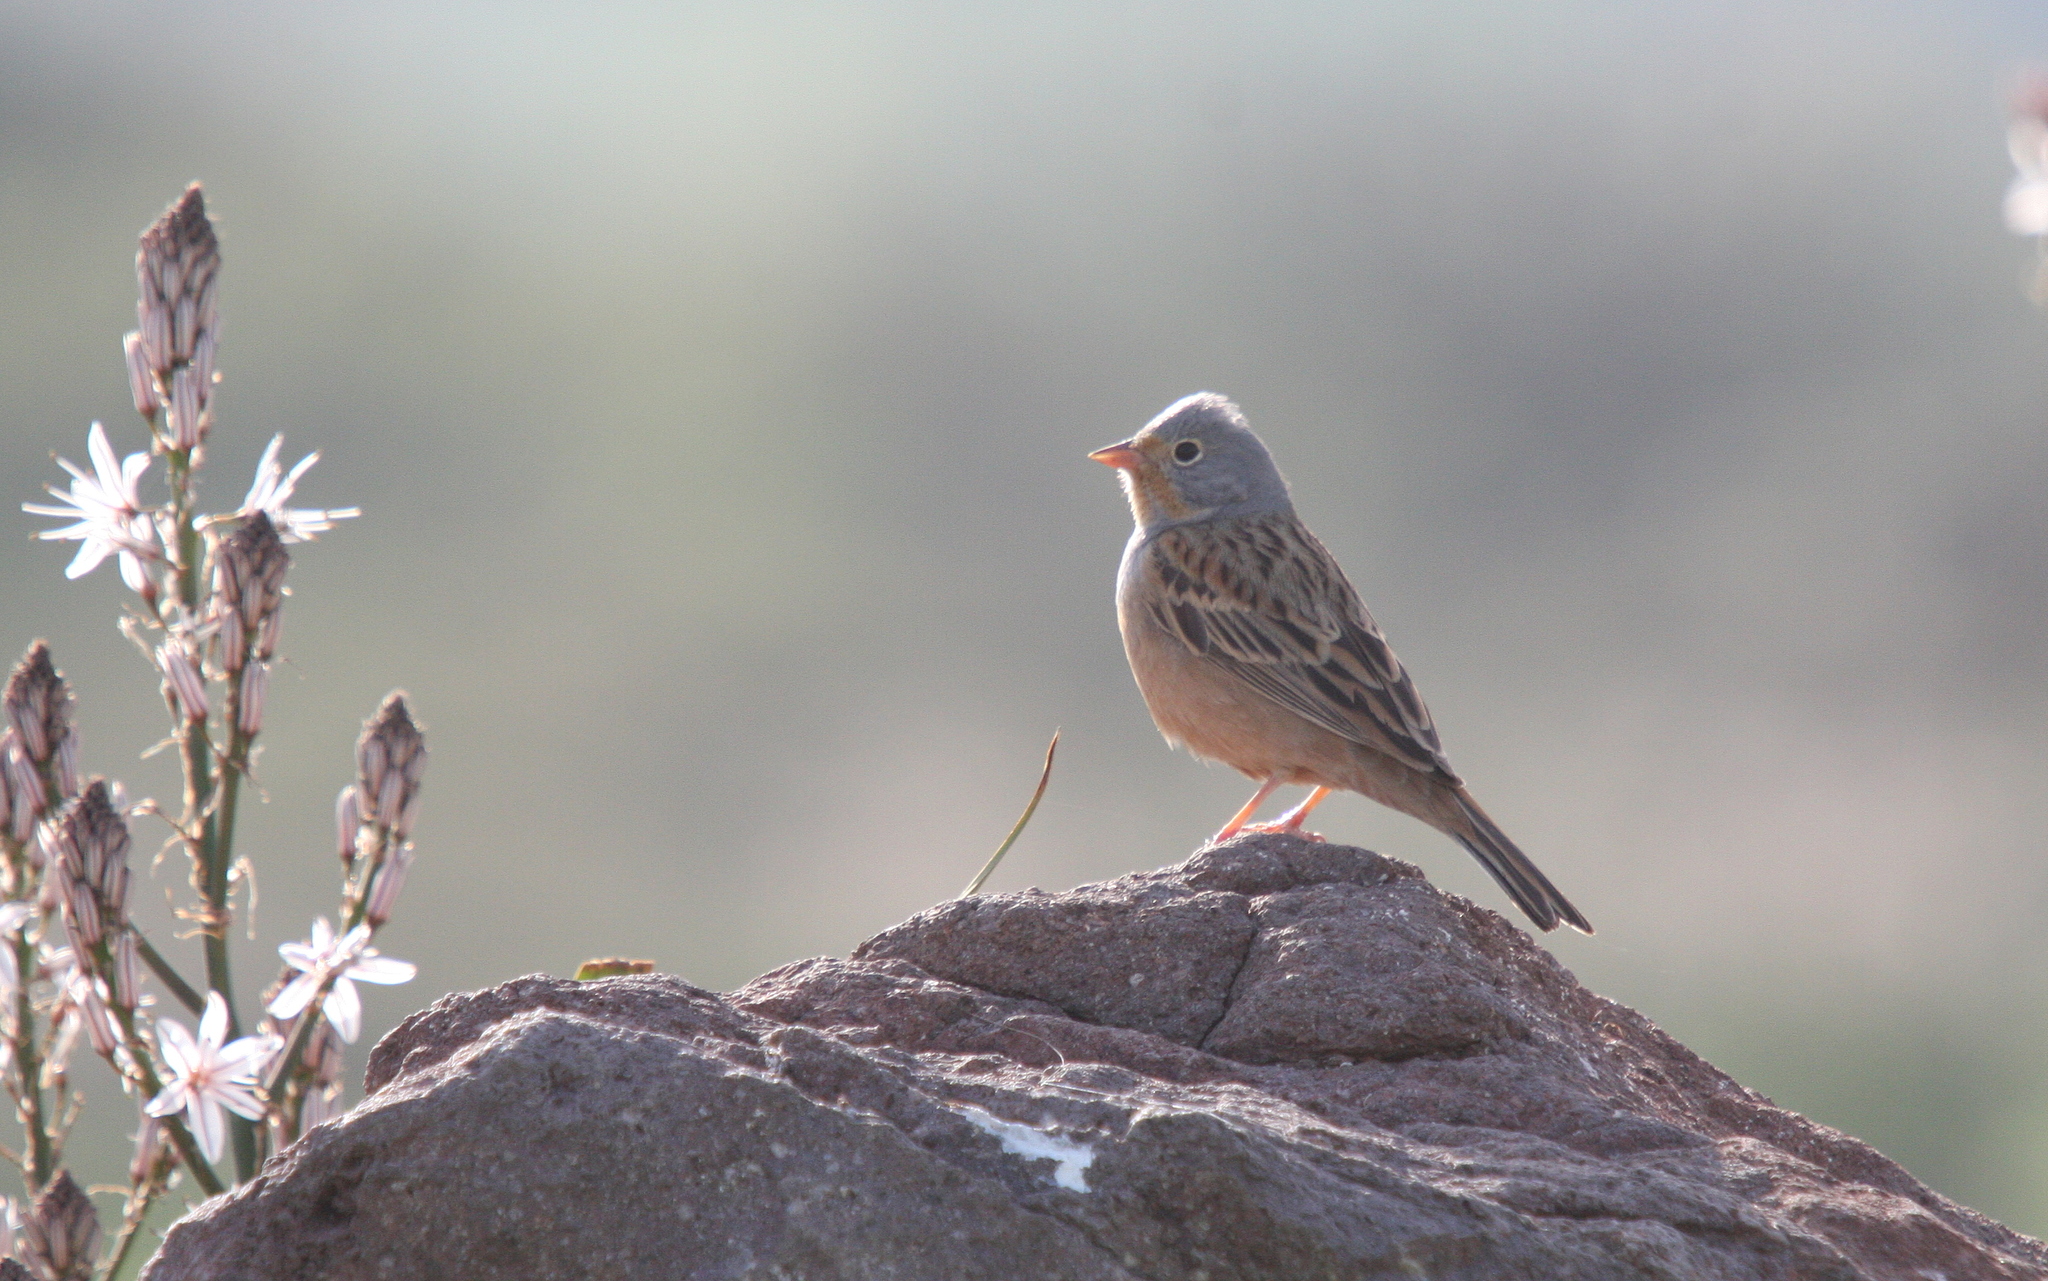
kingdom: Animalia
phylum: Chordata
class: Aves
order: Passeriformes
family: Emberizidae
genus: Emberiza
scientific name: Emberiza caesia
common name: Cretzschmar's bunting
